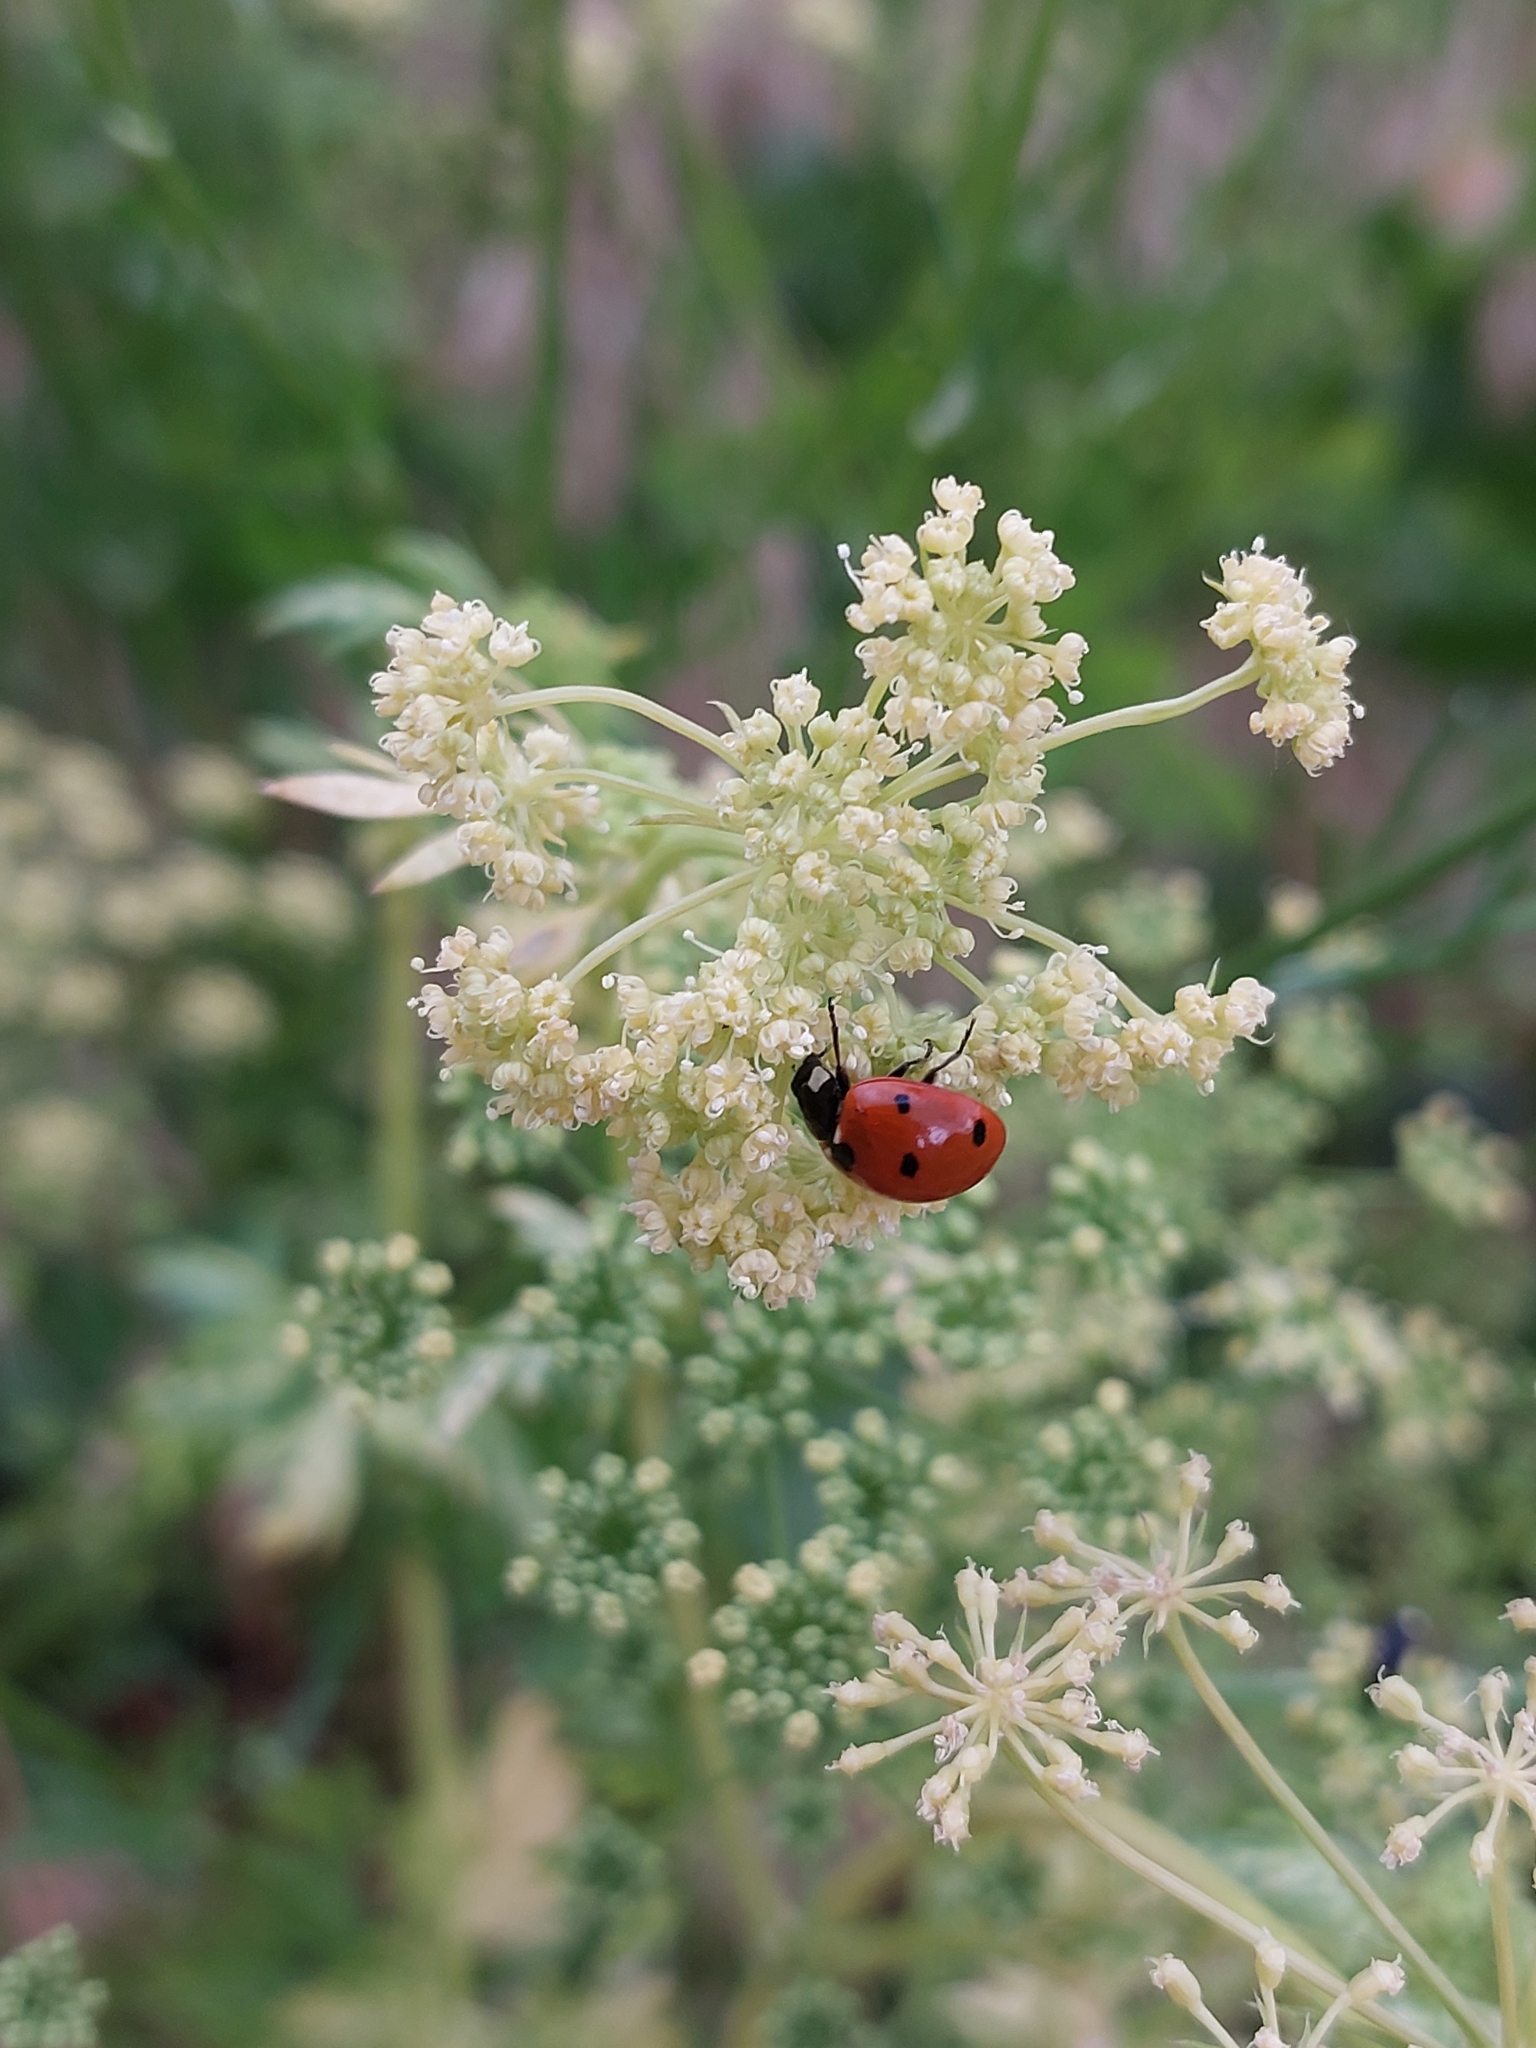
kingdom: Animalia
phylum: Arthropoda
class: Insecta
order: Coleoptera
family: Coccinellidae
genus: Coccinella
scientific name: Coccinella septempunctata
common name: Sevenspotted lady beetle
